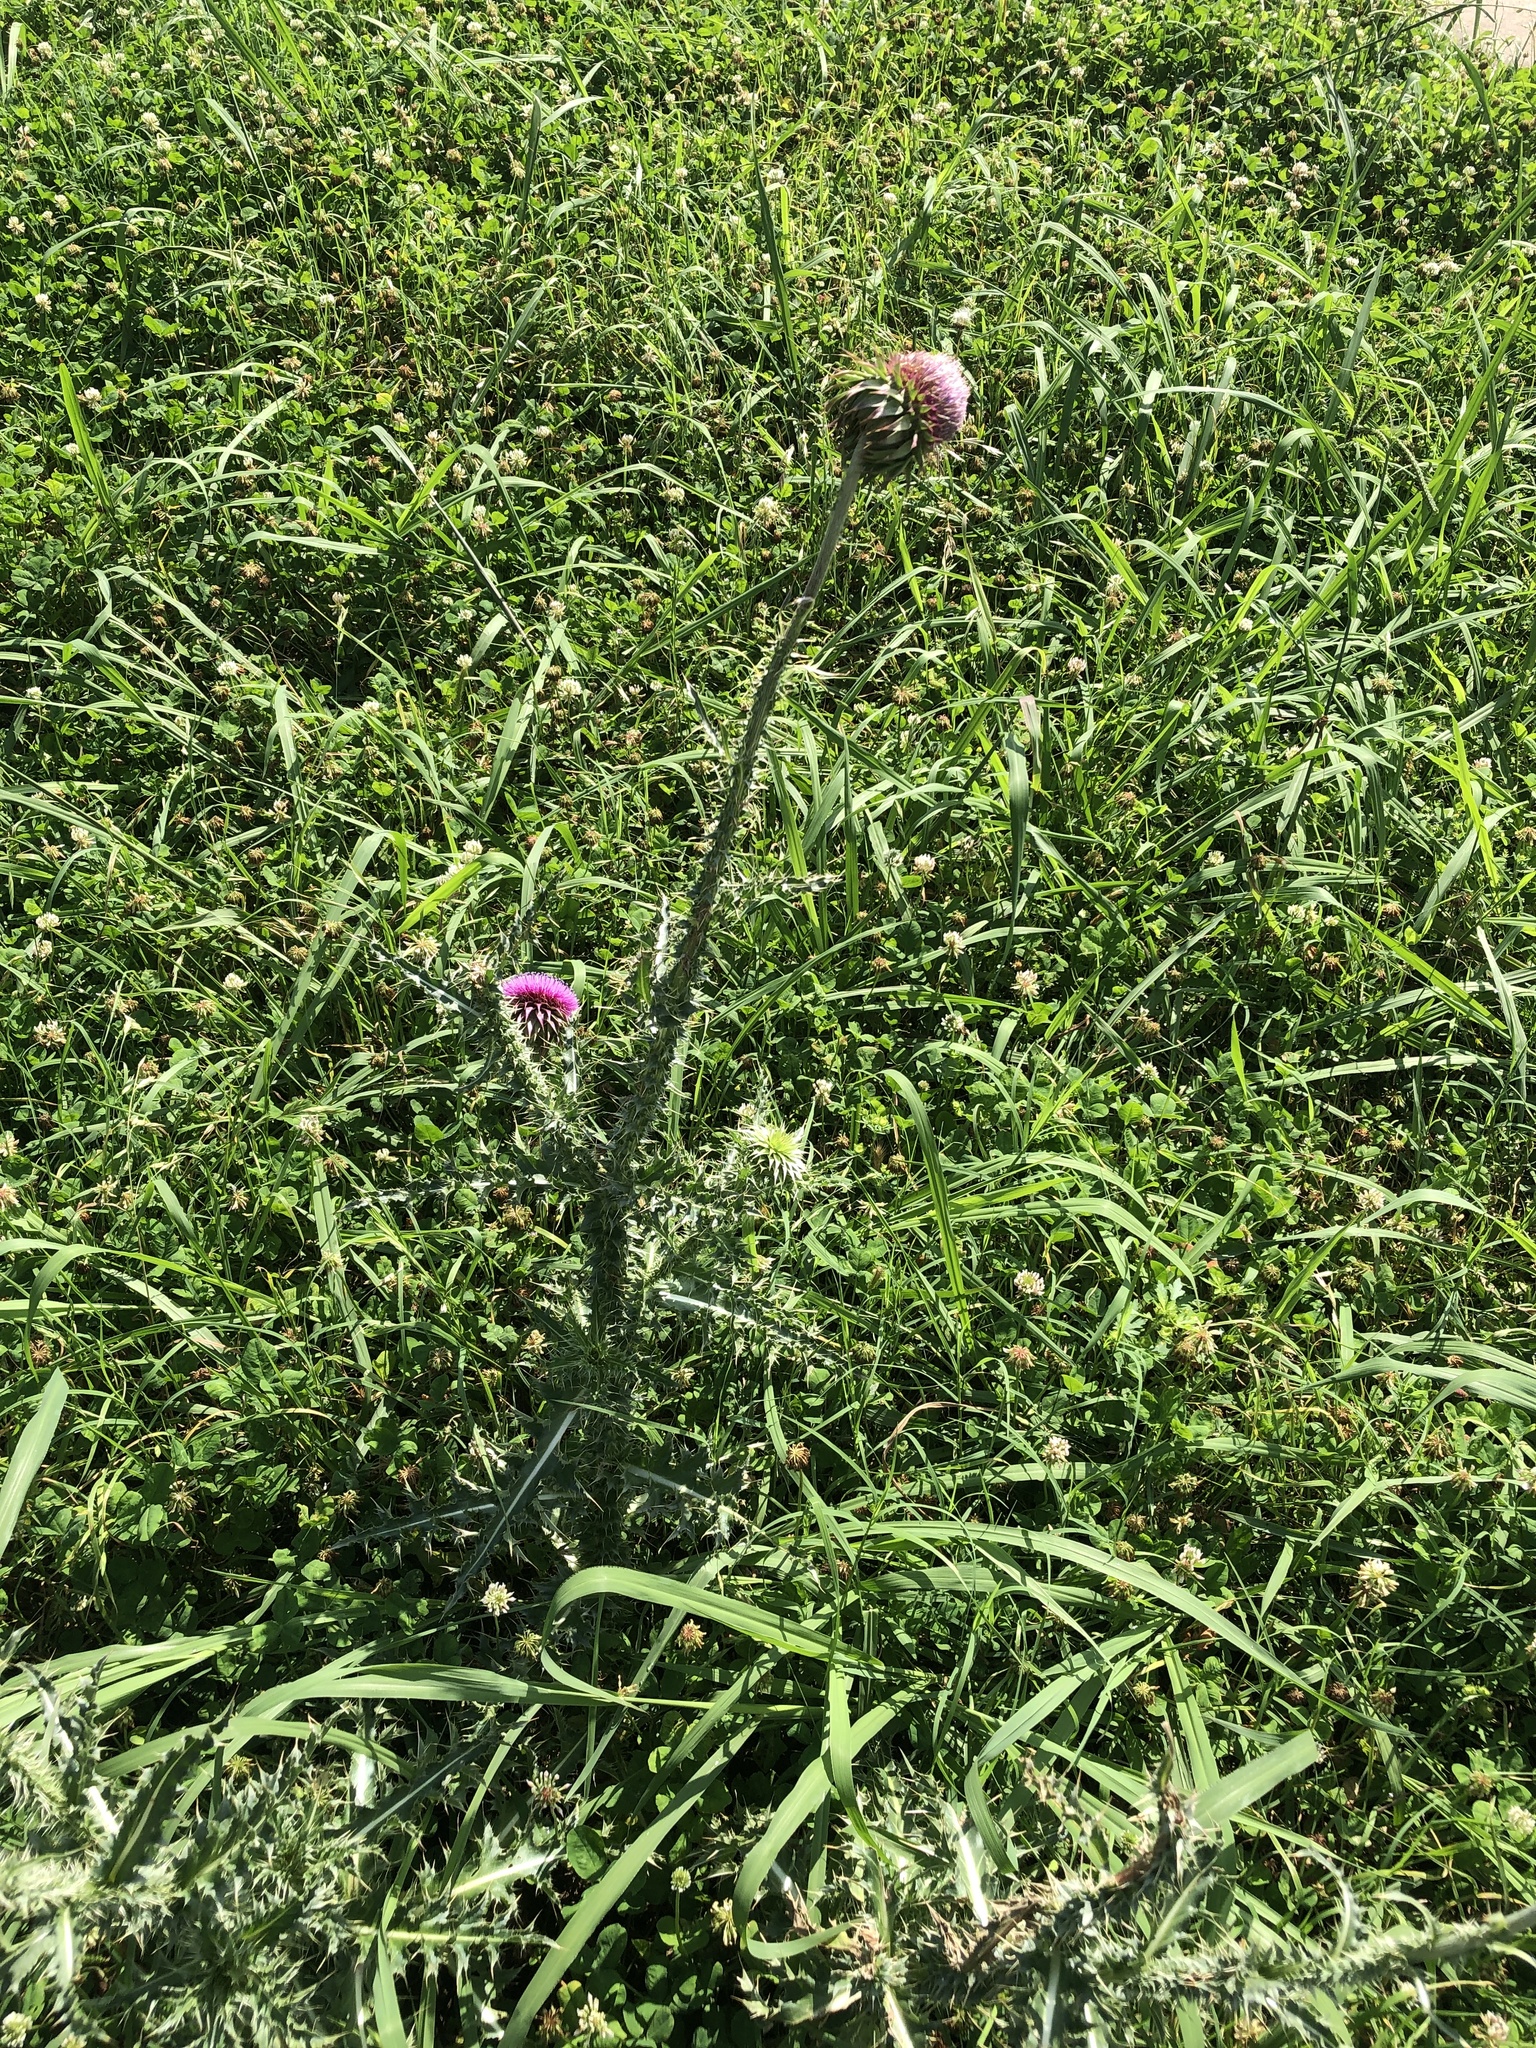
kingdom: Plantae
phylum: Tracheophyta
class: Magnoliopsida
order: Asterales
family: Asteraceae
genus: Carduus
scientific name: Carduus nutans
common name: Musk thistle
